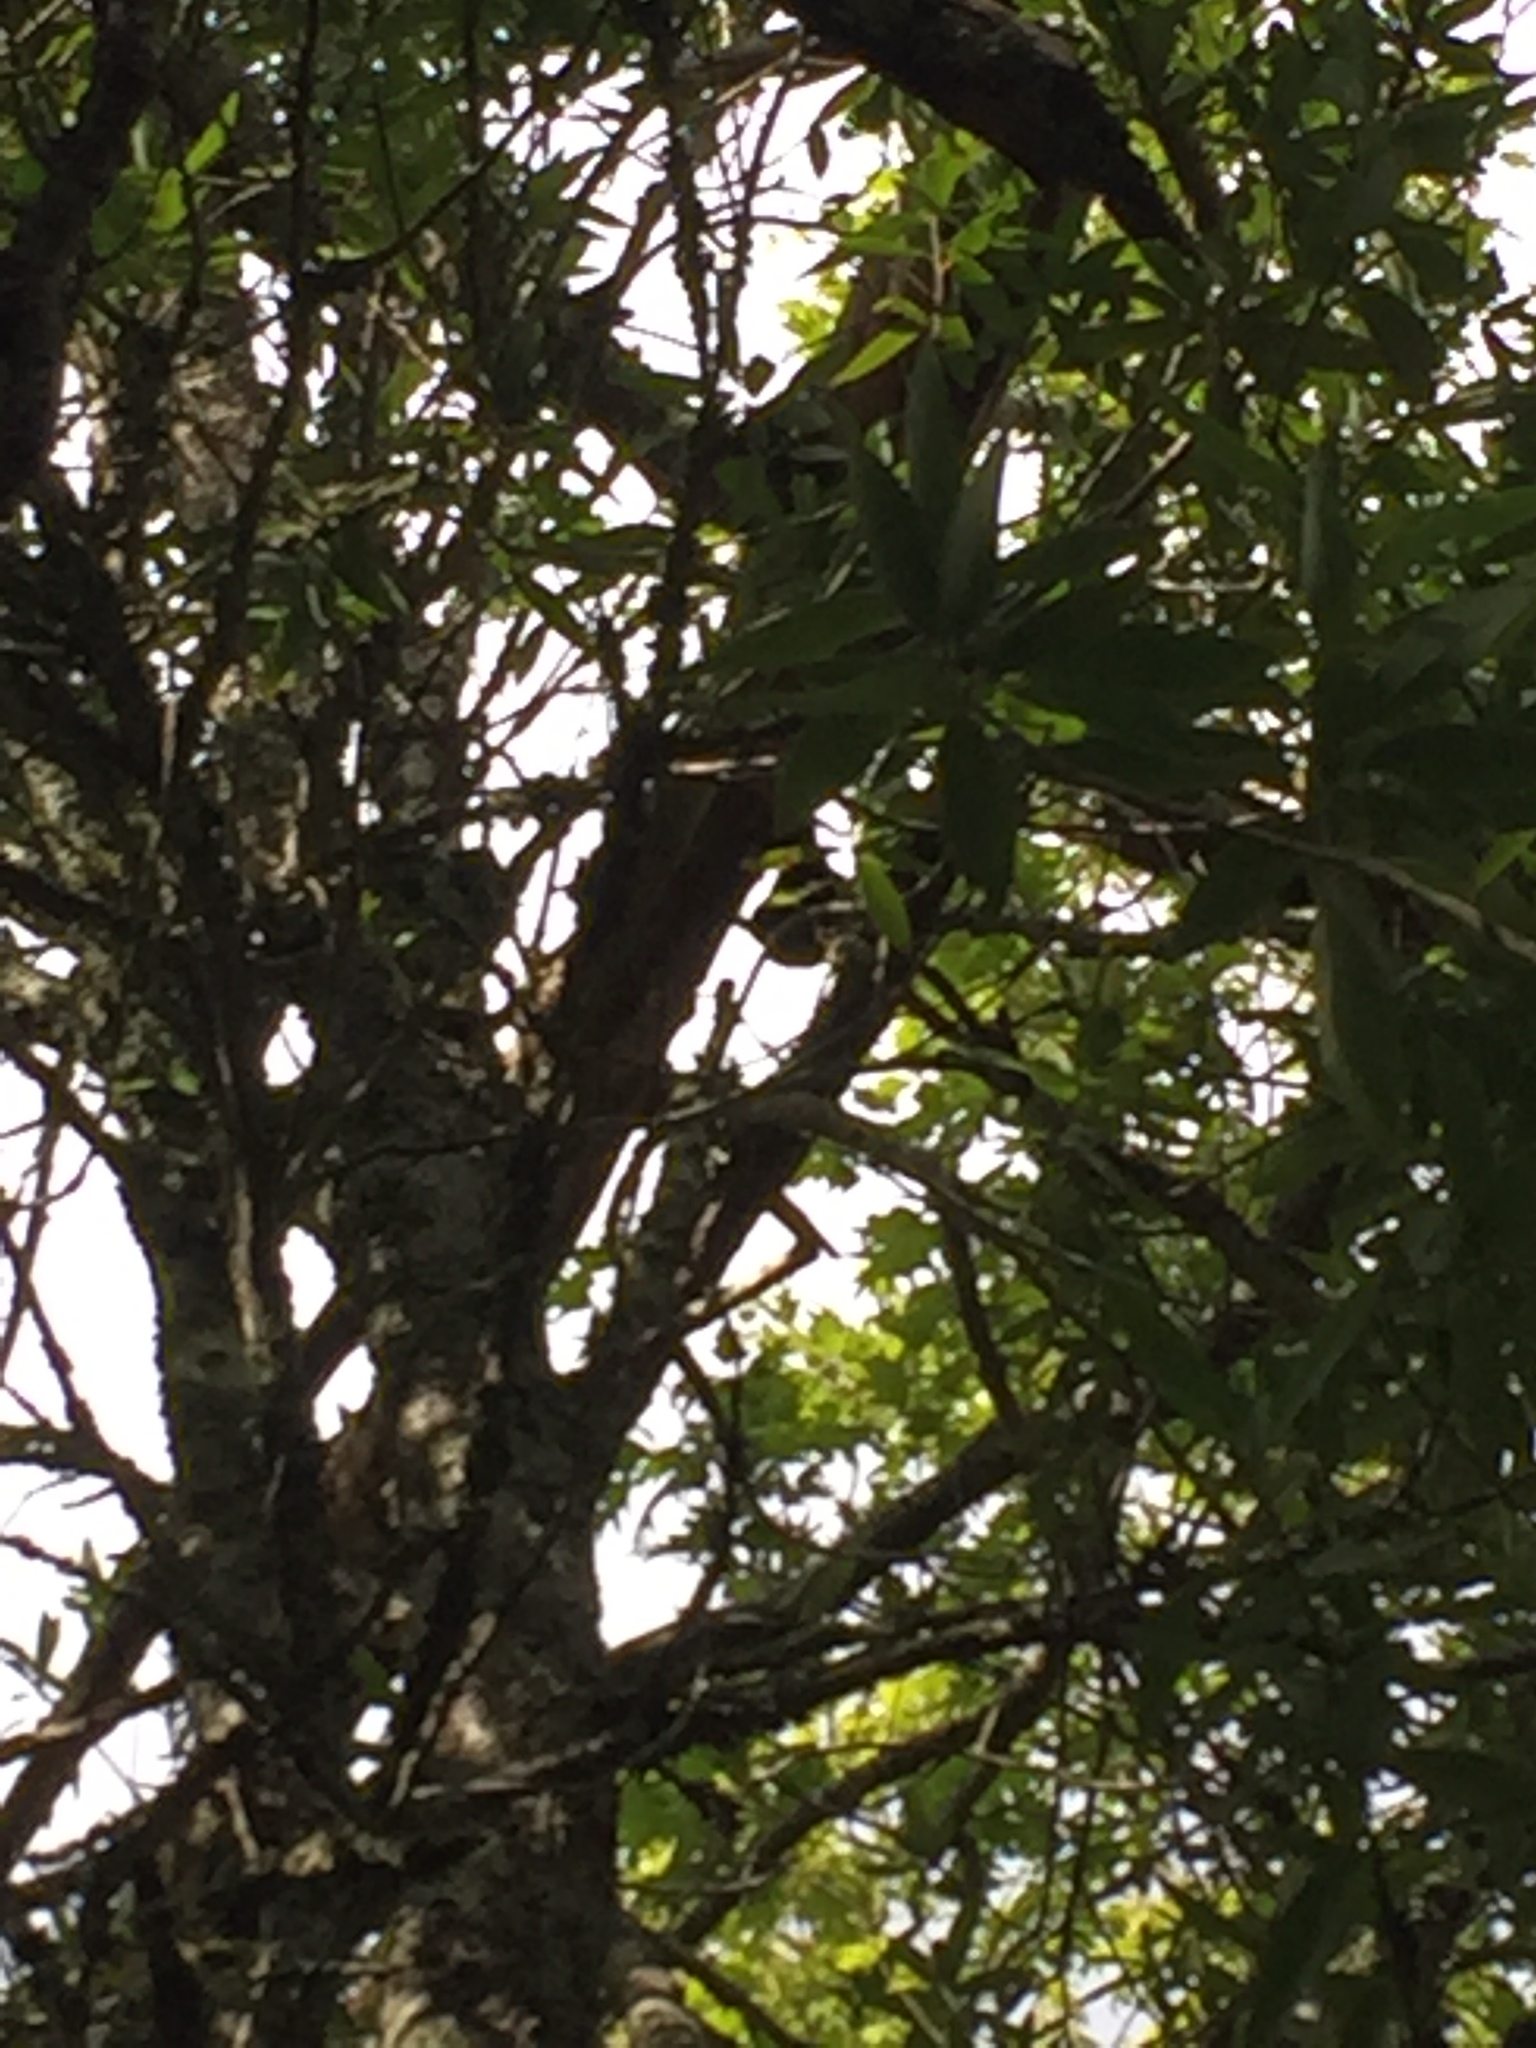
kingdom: Animalia
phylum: Chordata
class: Aves
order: Piciformes
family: Picidae
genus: Dryocopus
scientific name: Dryocopus pileatus
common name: Pileated woodpecker
